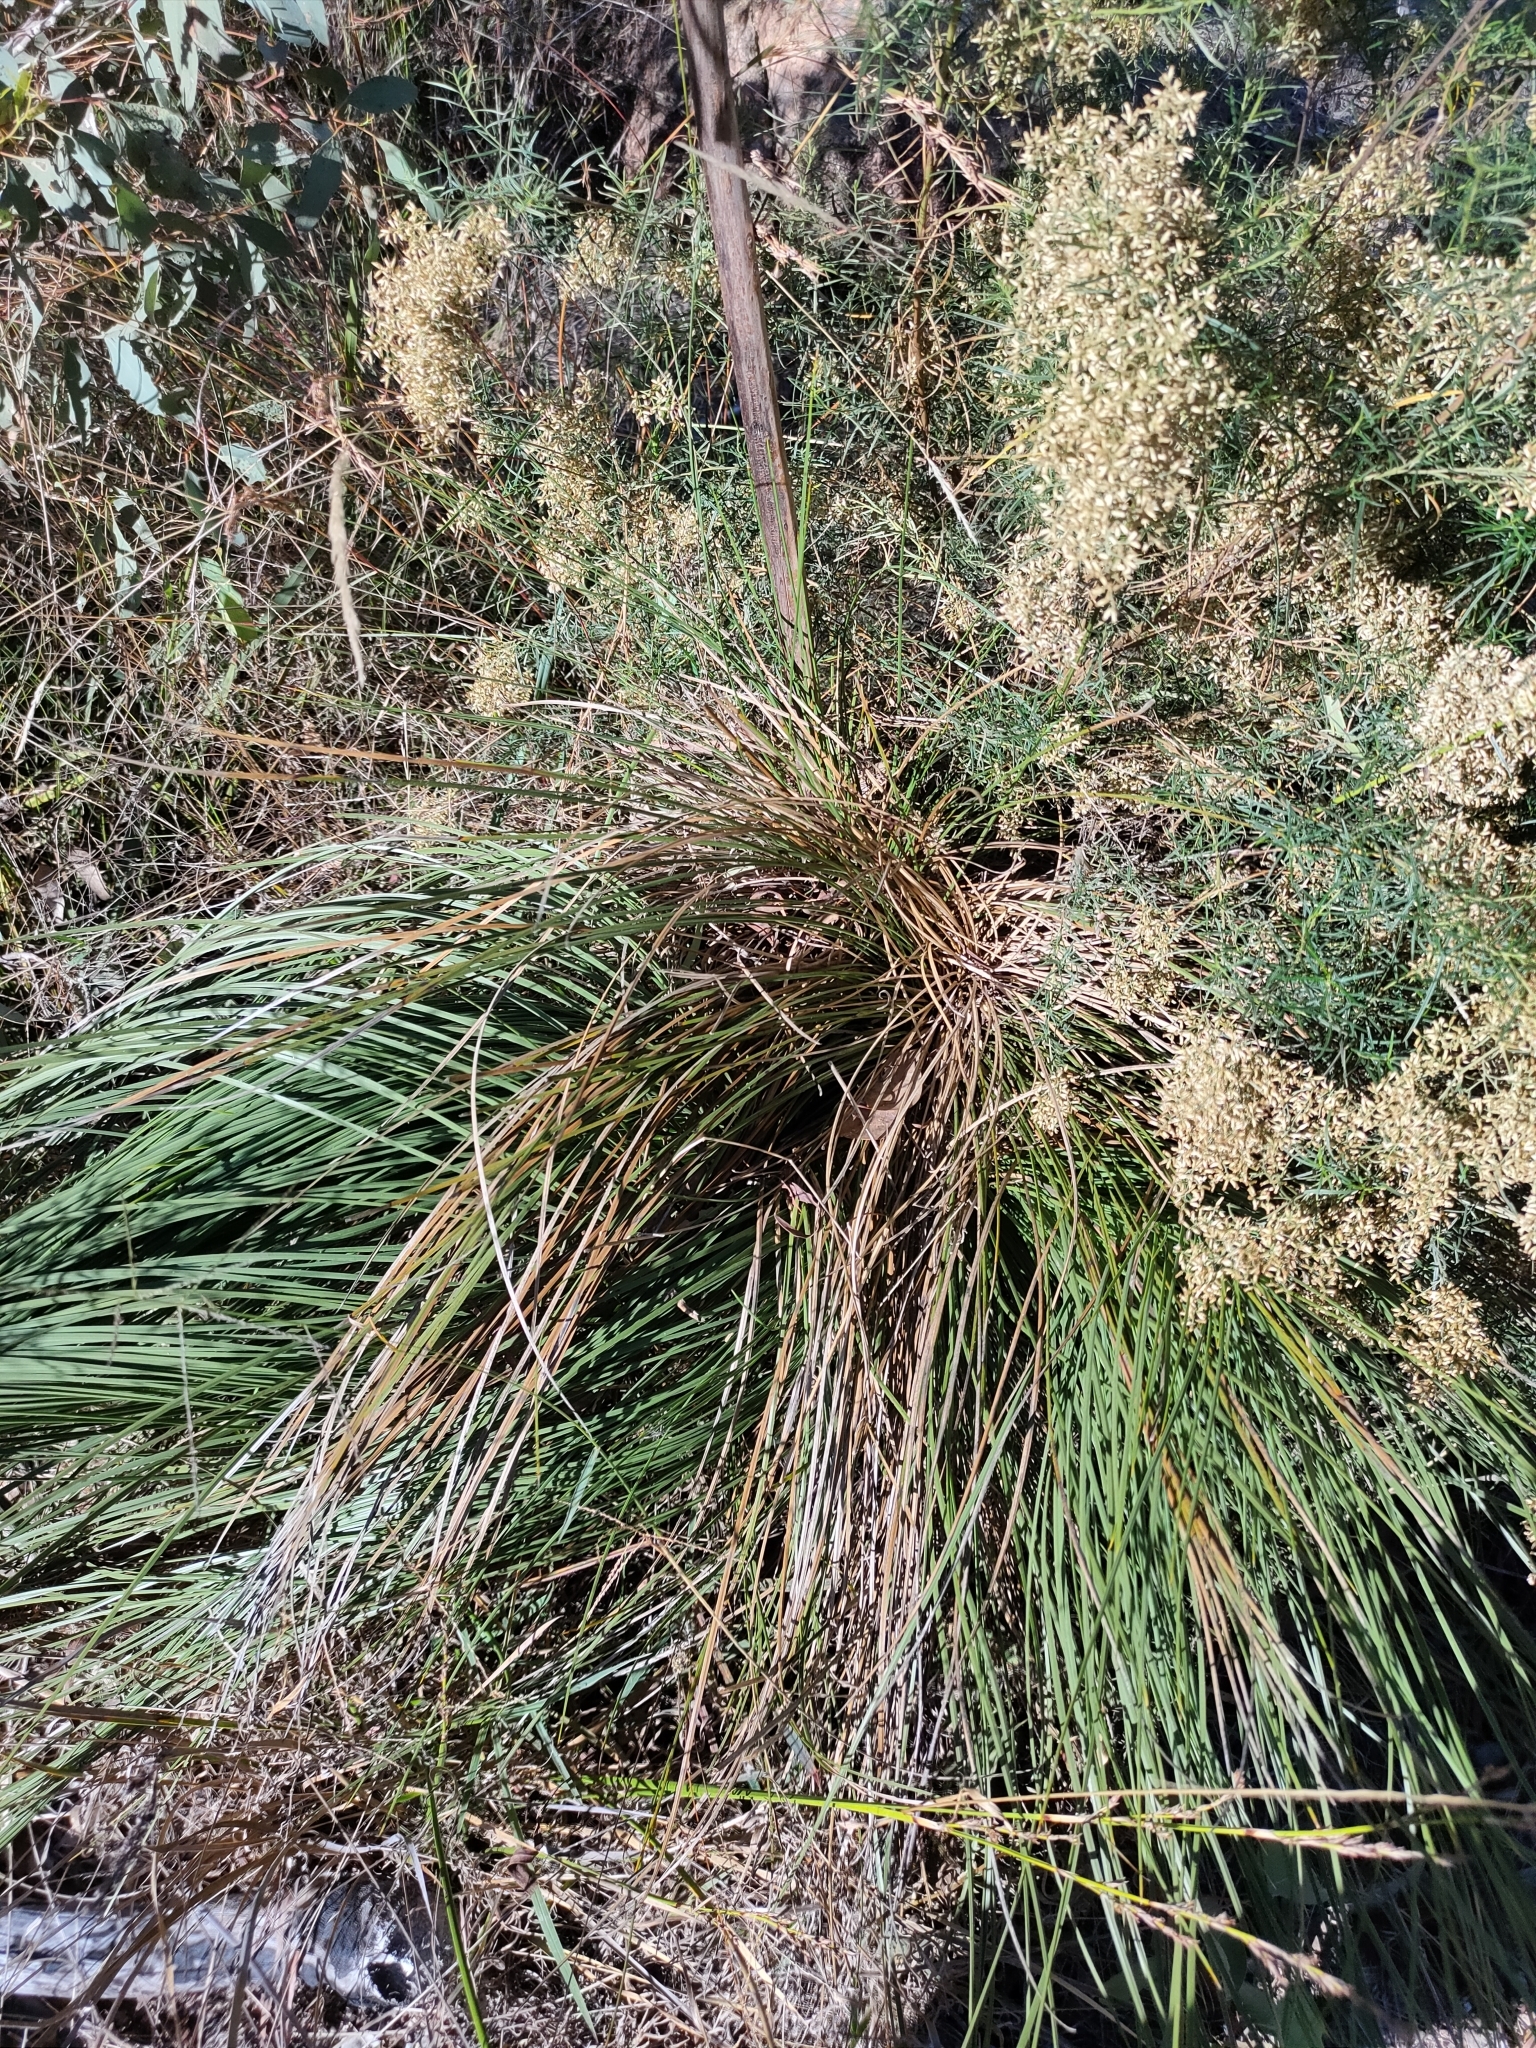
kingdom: Plantae
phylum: Tracheophyta
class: Liliopsida
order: Asparagales
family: Asphodelaceae
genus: Xanthorrhoea
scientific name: Xanthorrhoea johnsonii
